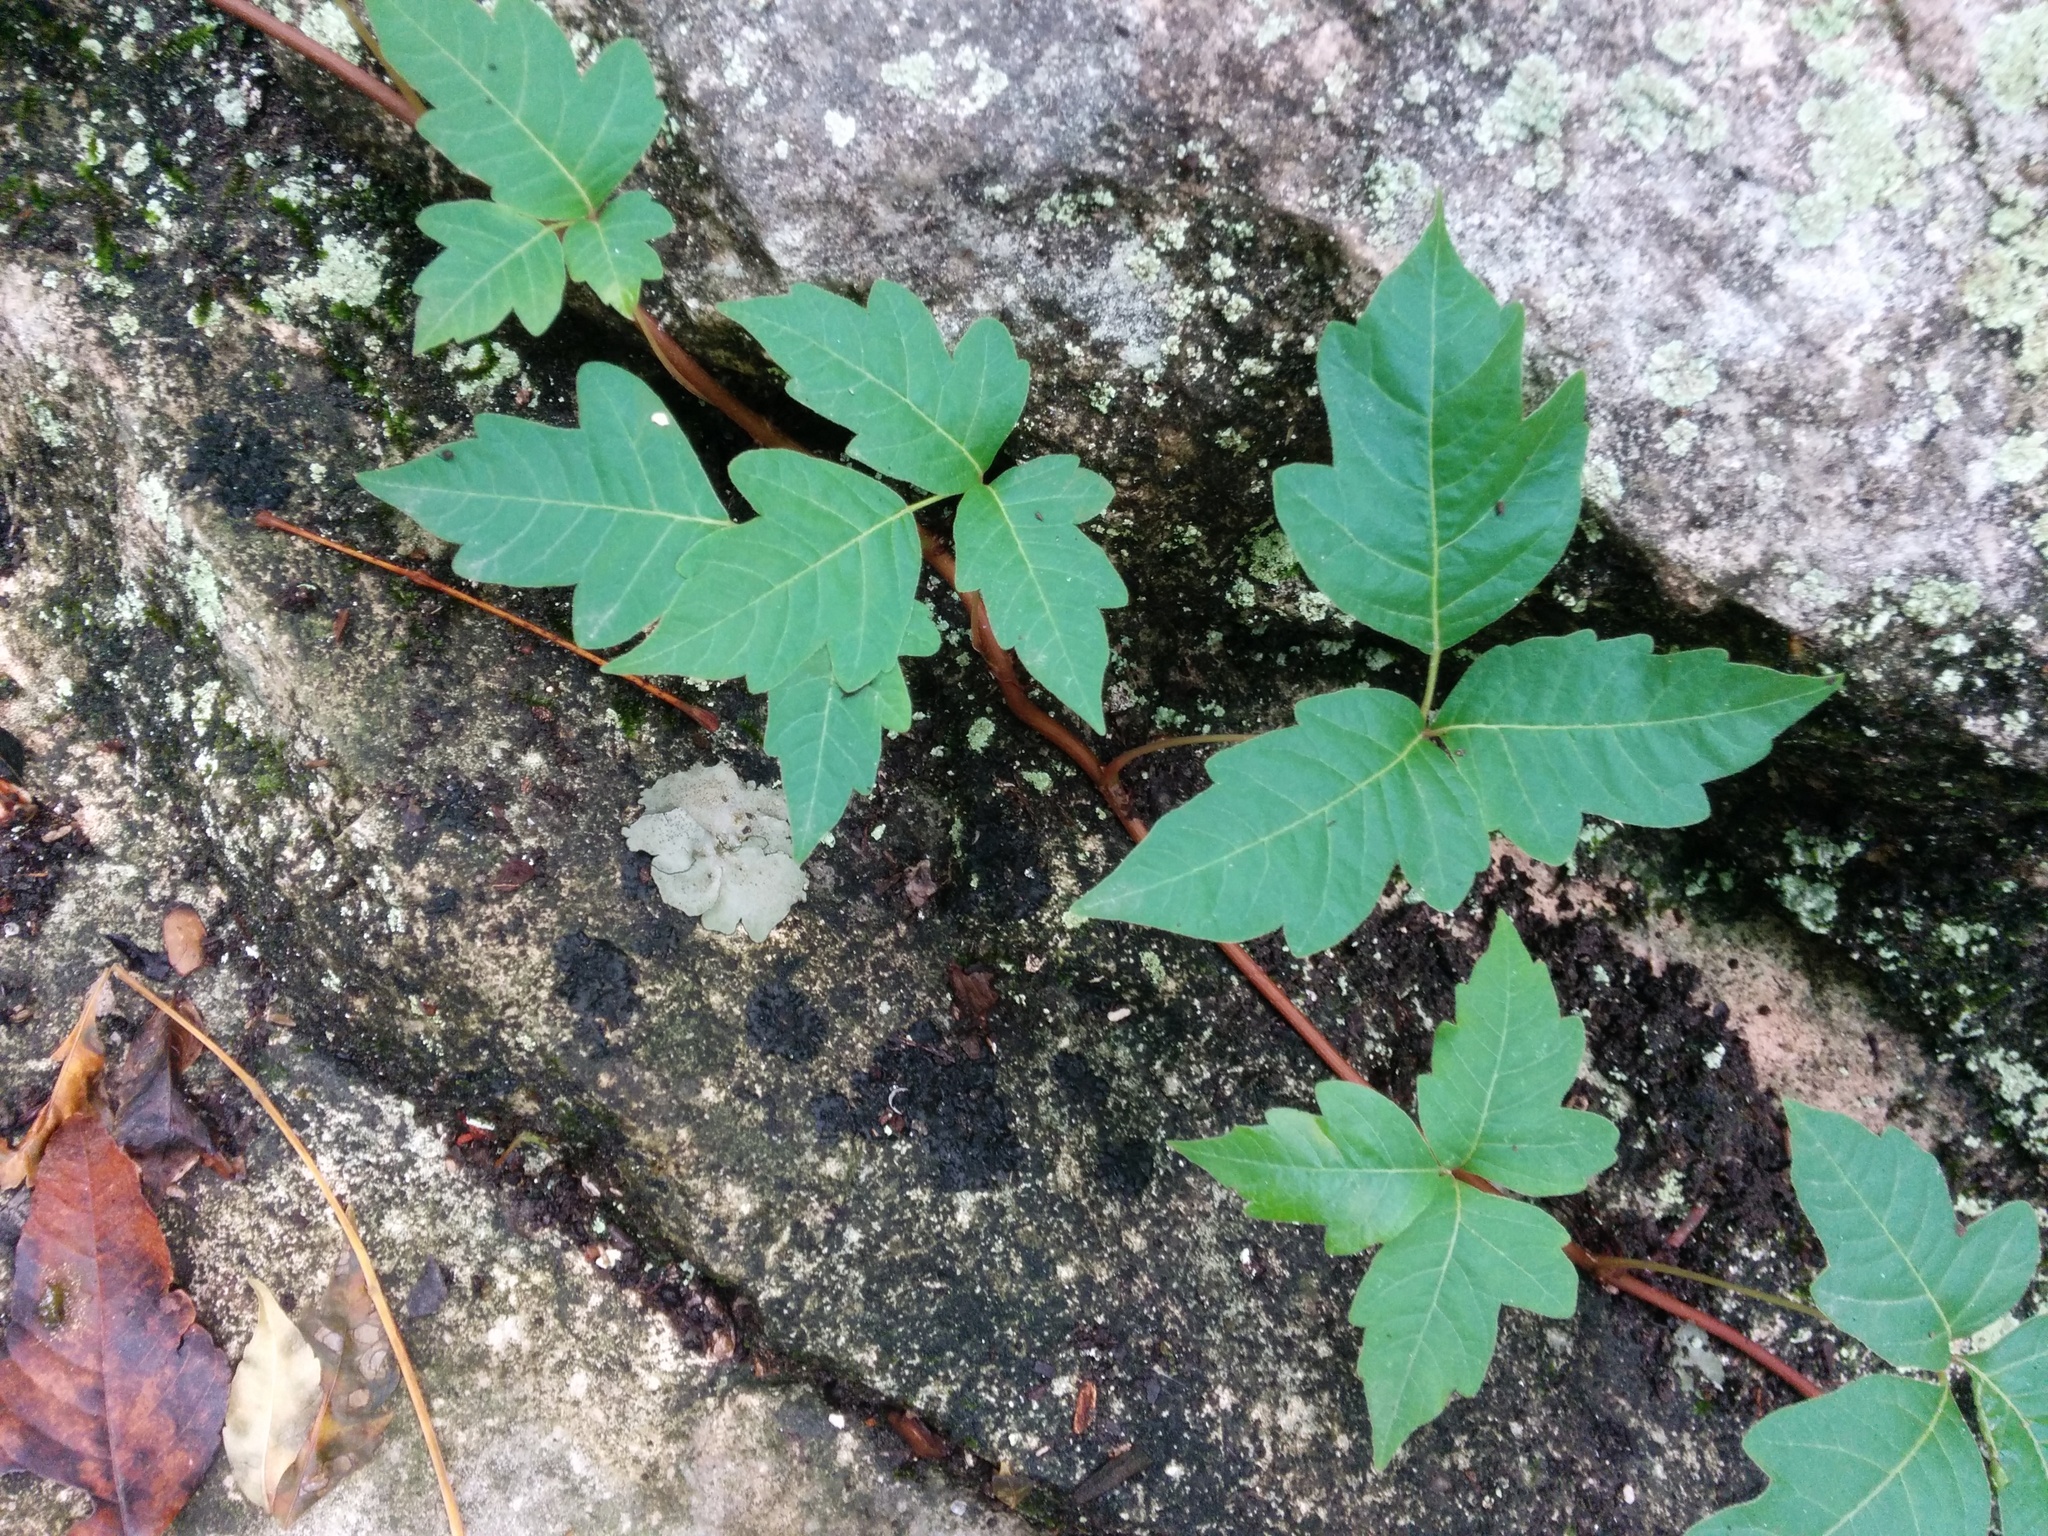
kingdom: Plantae
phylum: Tracheophyta
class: Magnoliopsida
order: Sapindales
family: Anacardiaceae
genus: Toxicodendron
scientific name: Toxicodendron radicans
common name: Poison ivy
